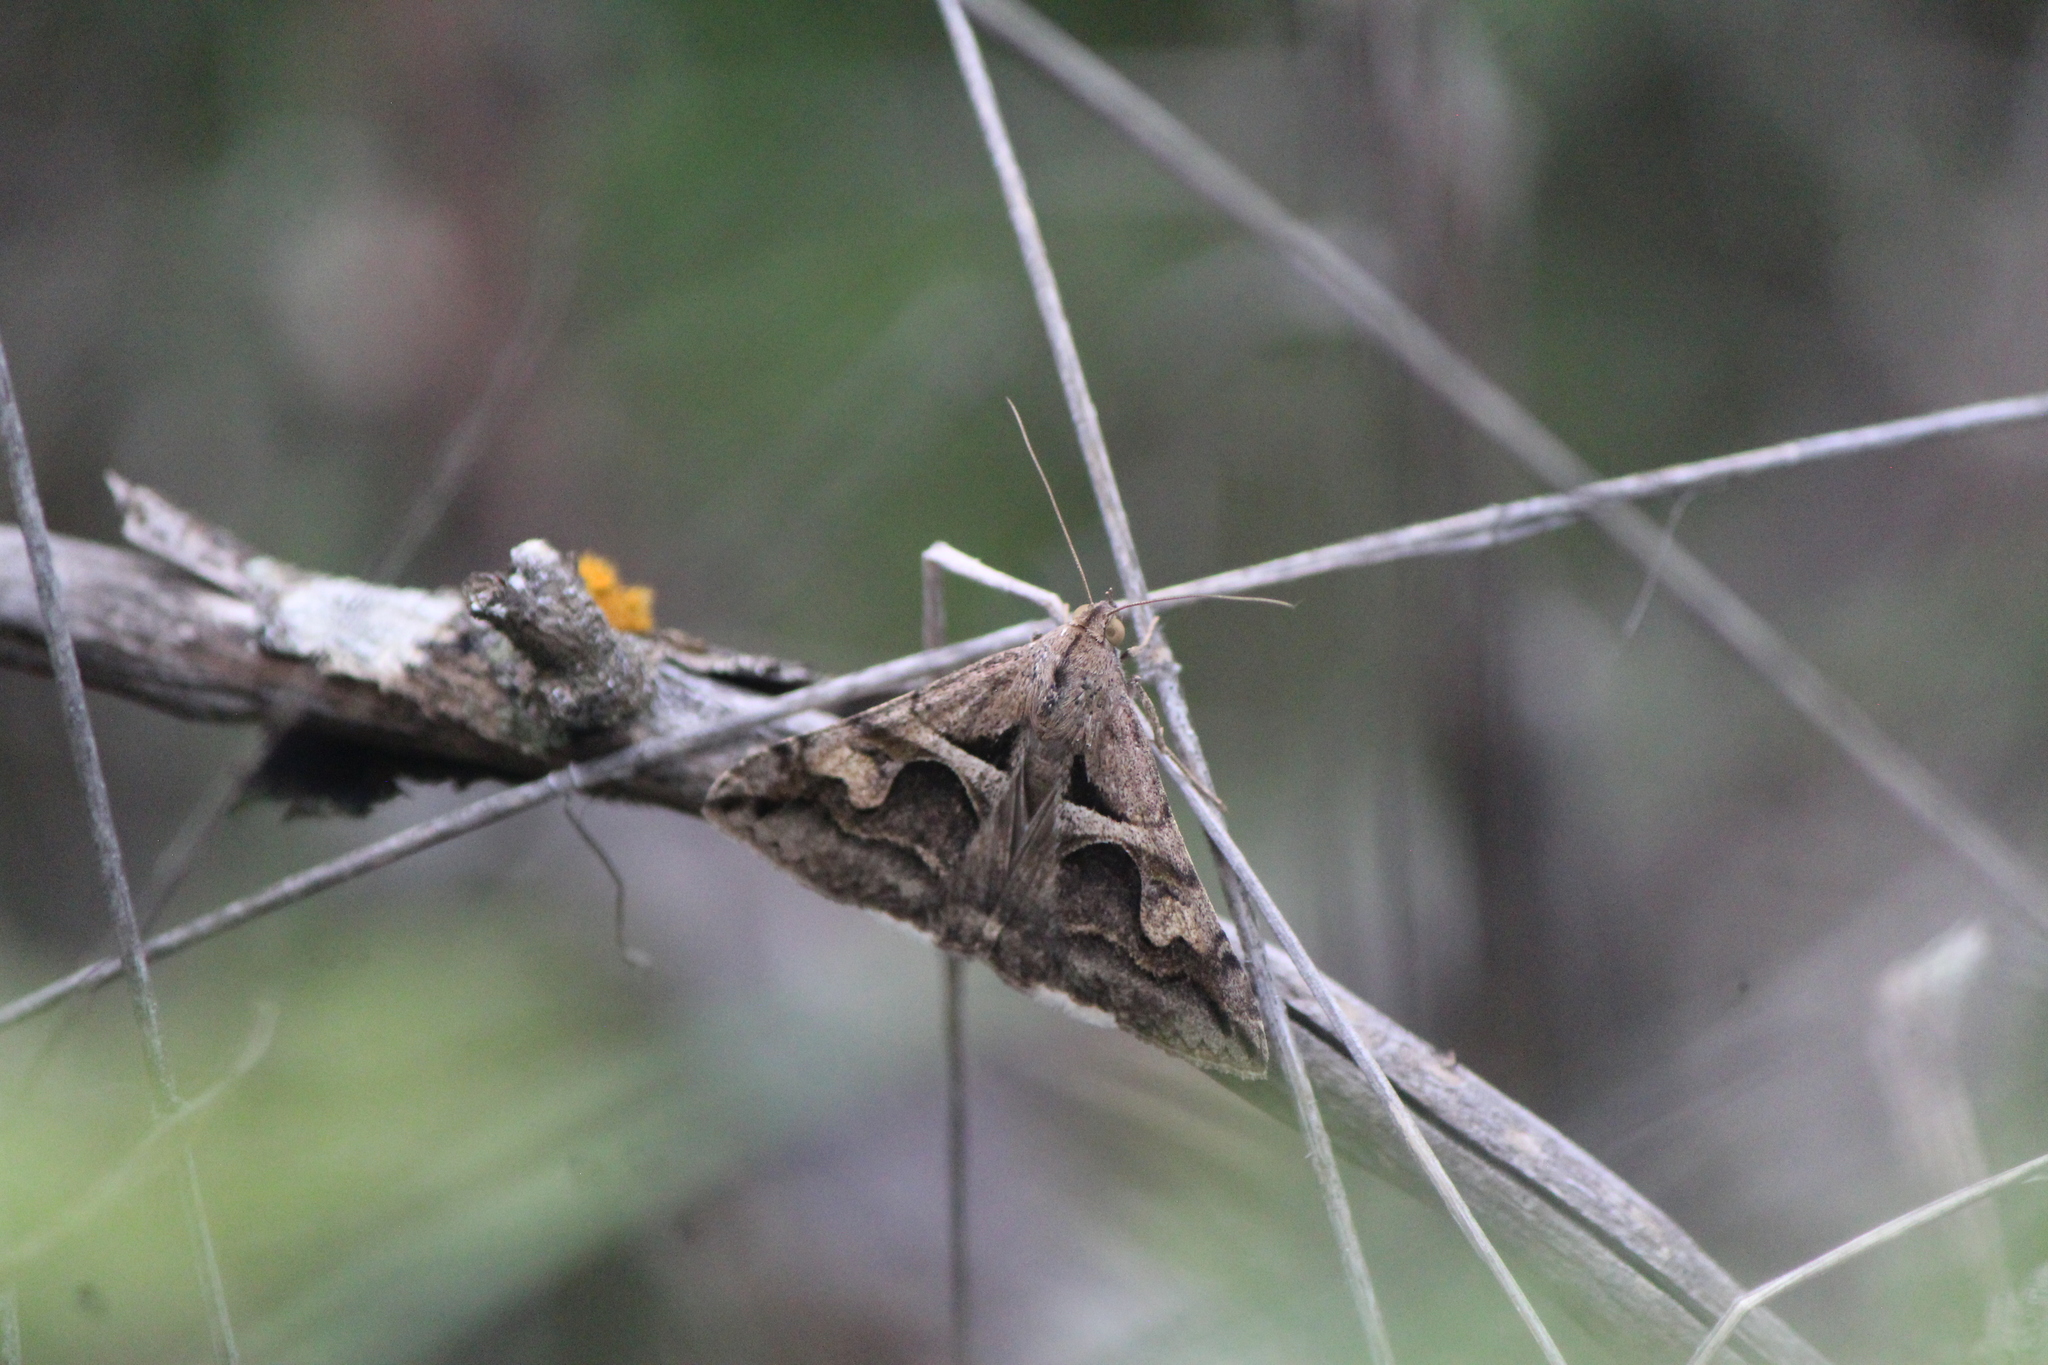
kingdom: Animalia
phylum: Arthropoda
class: Insecta
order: Lepidoptera
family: Erebidae
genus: Melipotis
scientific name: Melipotis cellaris
